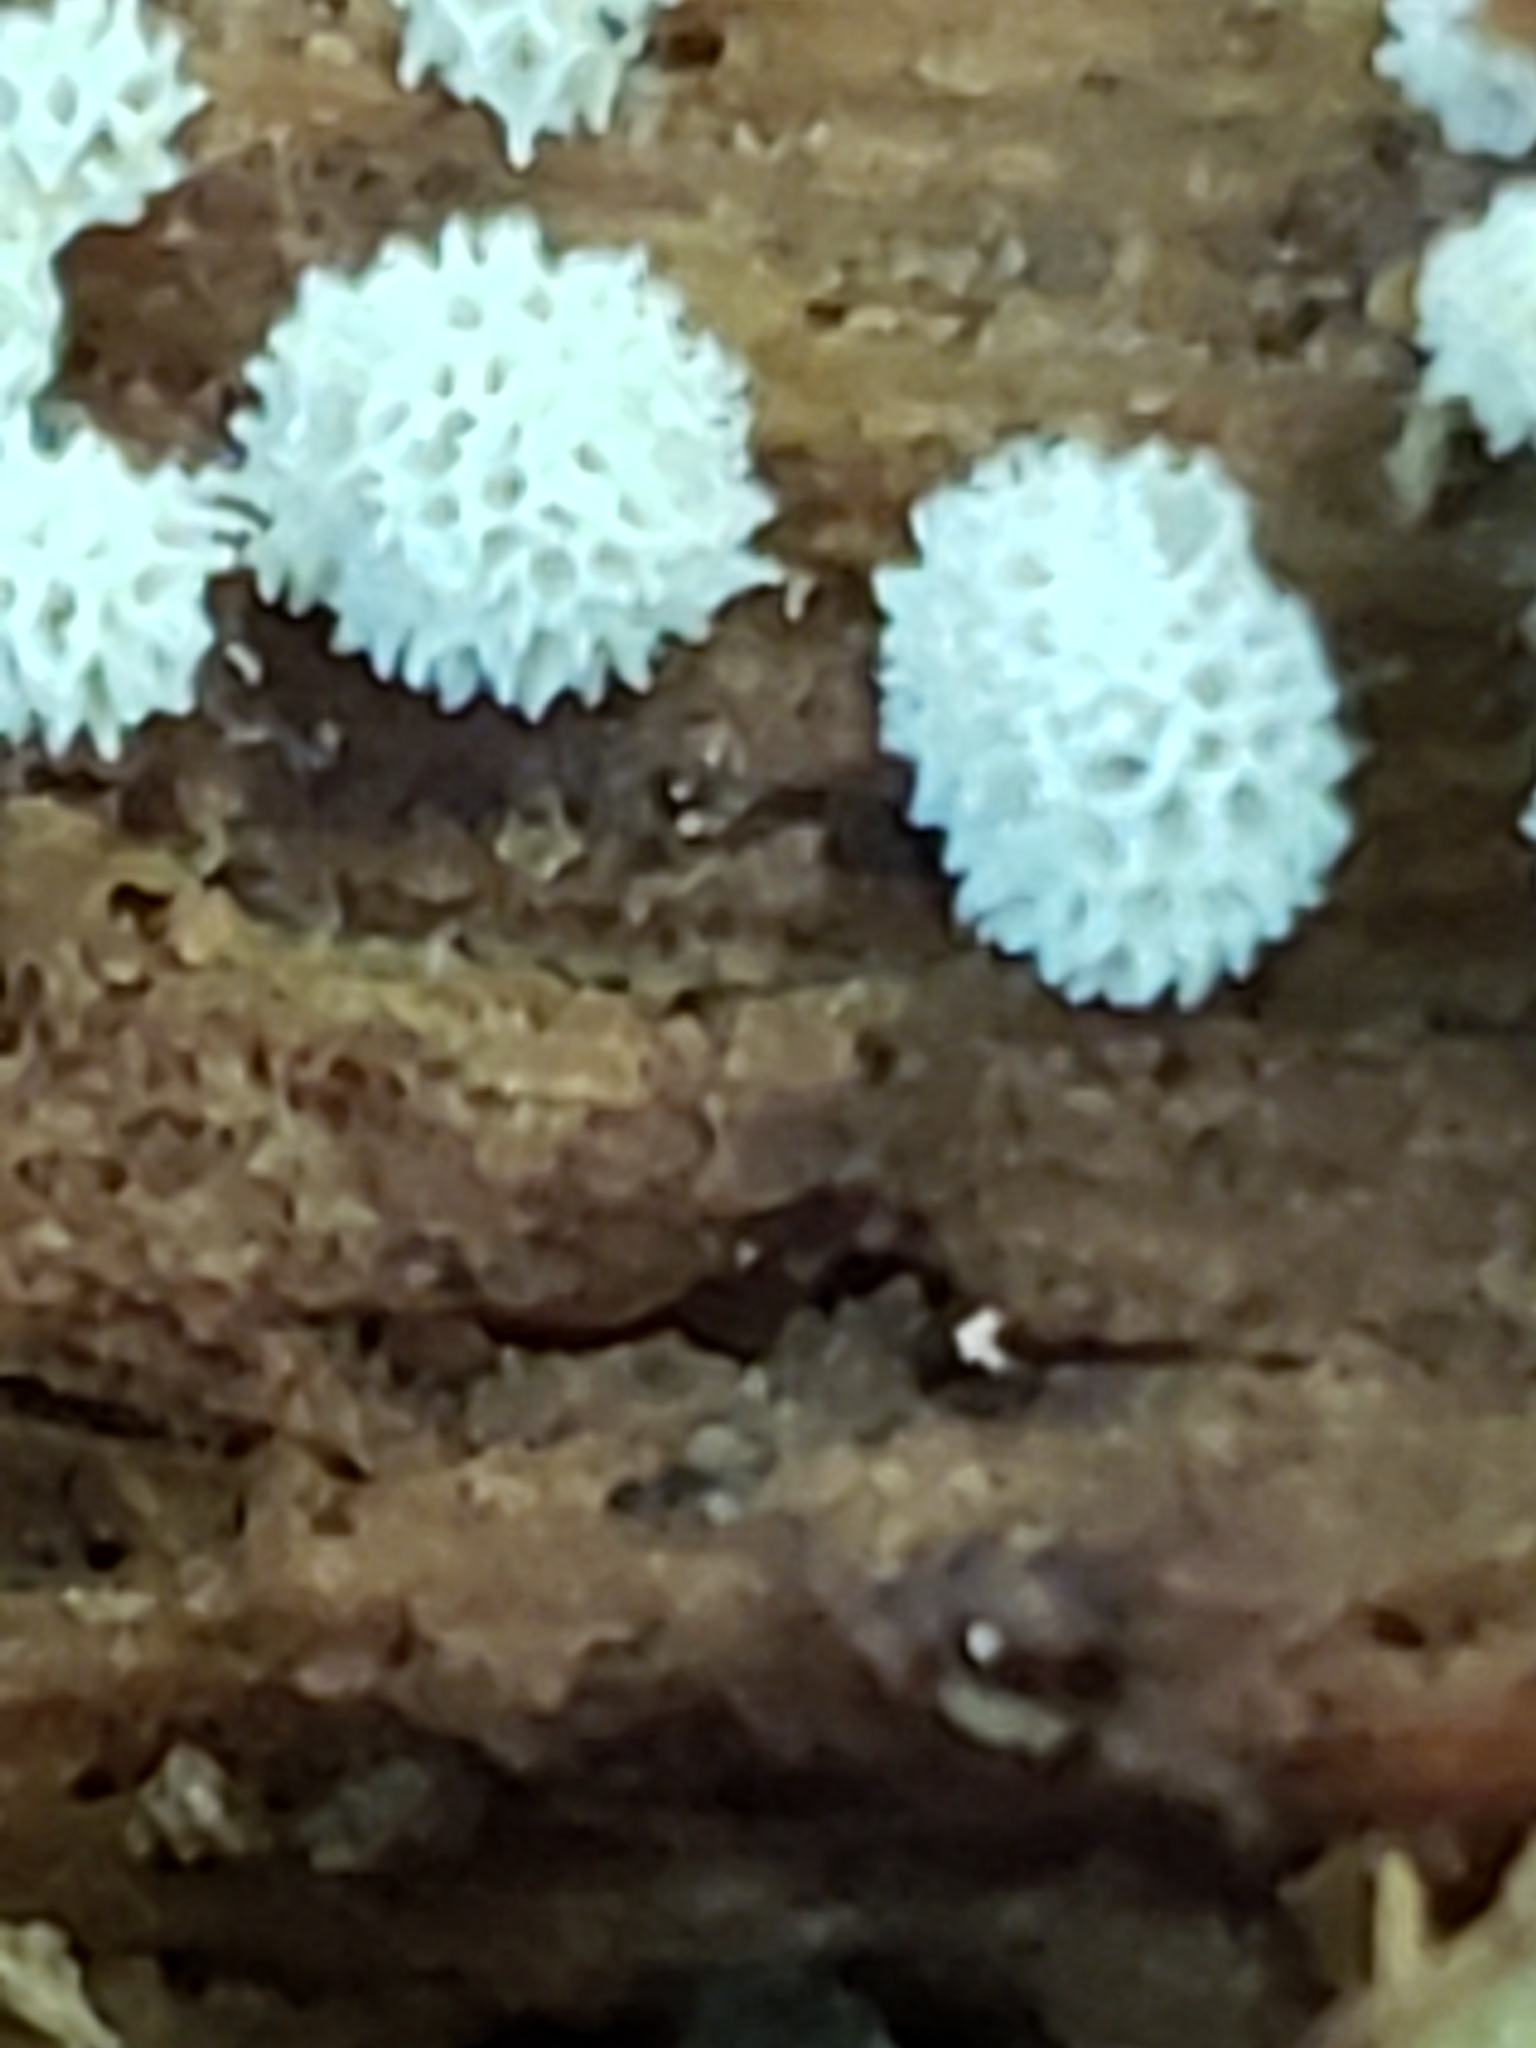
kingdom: Protozoa
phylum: Mycetozoa
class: Protosteliomycetes
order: Ceratiomyxales
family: Ceratiomyxaceae
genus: Ceratiomyxa
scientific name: Ceratiomyxa fruticulosa
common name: Honeycomb coral slime mold
